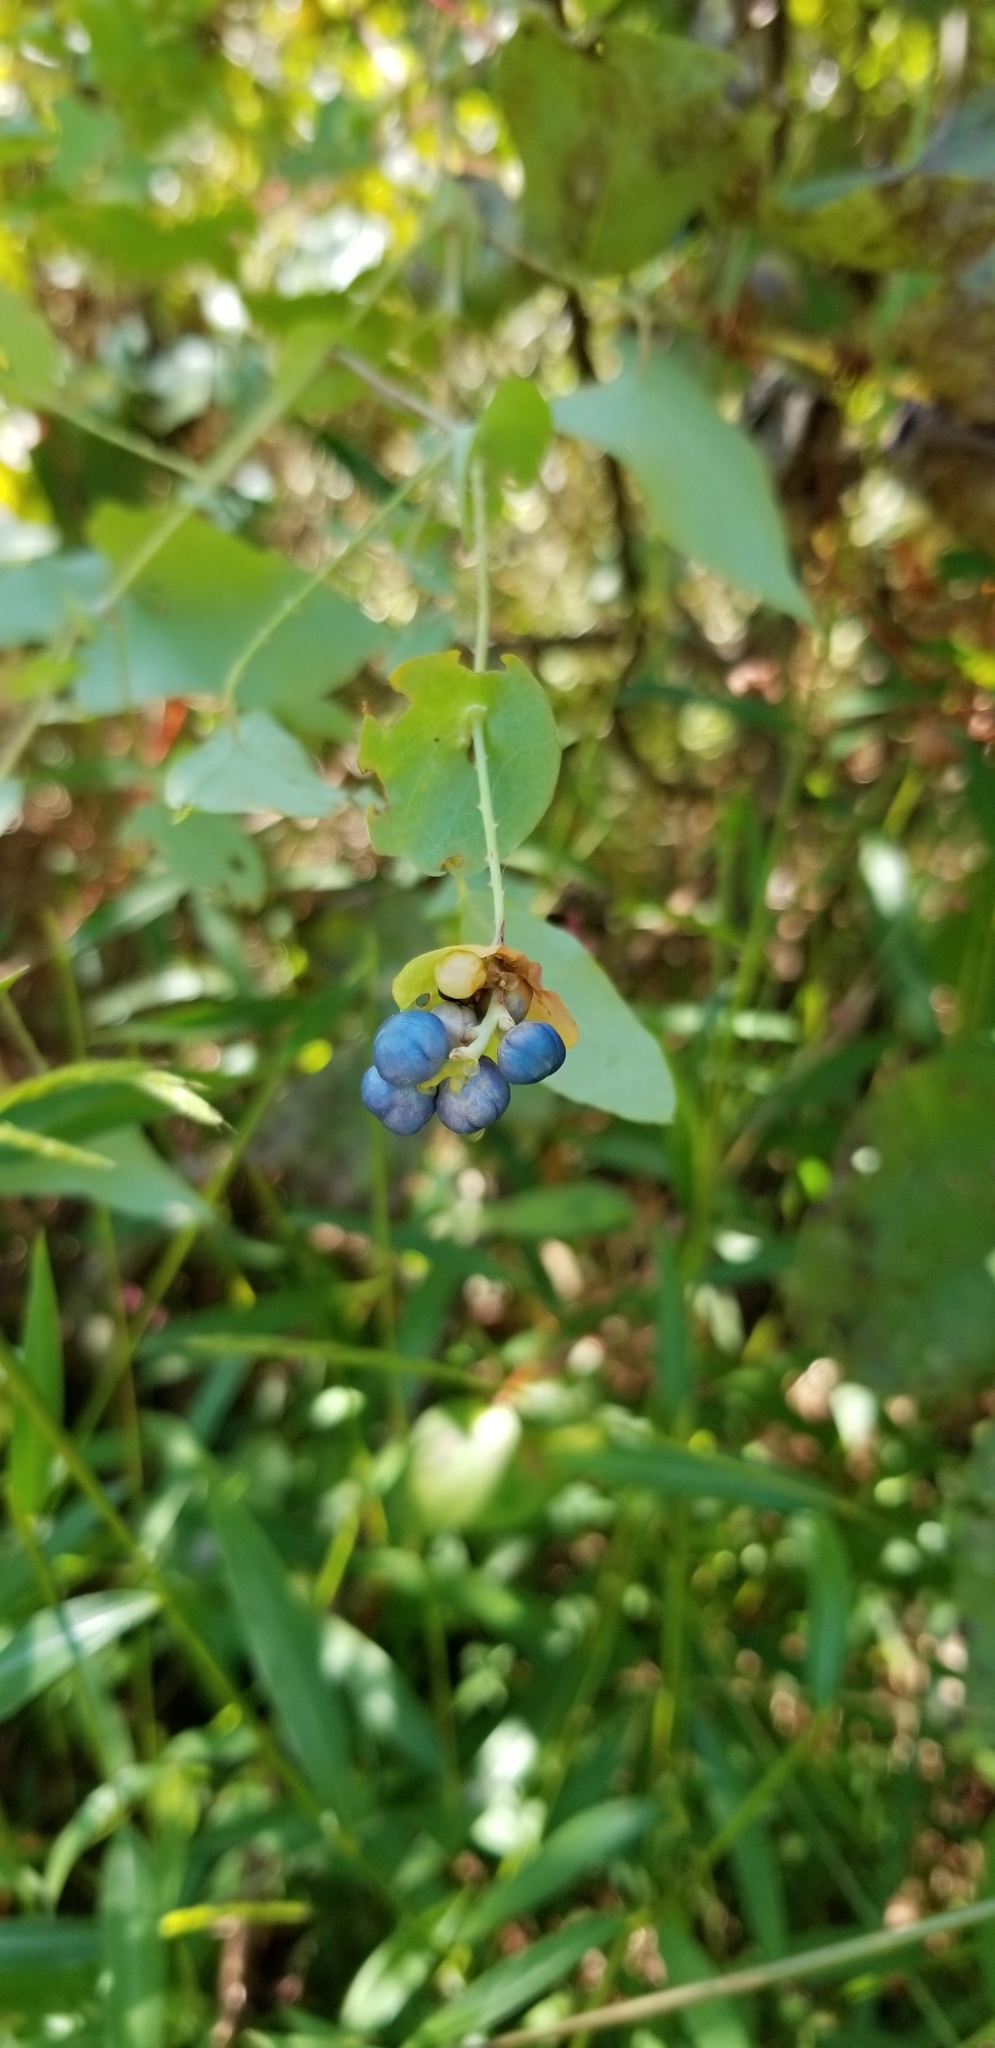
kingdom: Plantae
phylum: Tracheophyta
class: Magnoliopsida
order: Caryophyllales
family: Polygonaceae
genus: Persicaria
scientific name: Persicaria perfoliata
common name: Asiatic tearthumb
